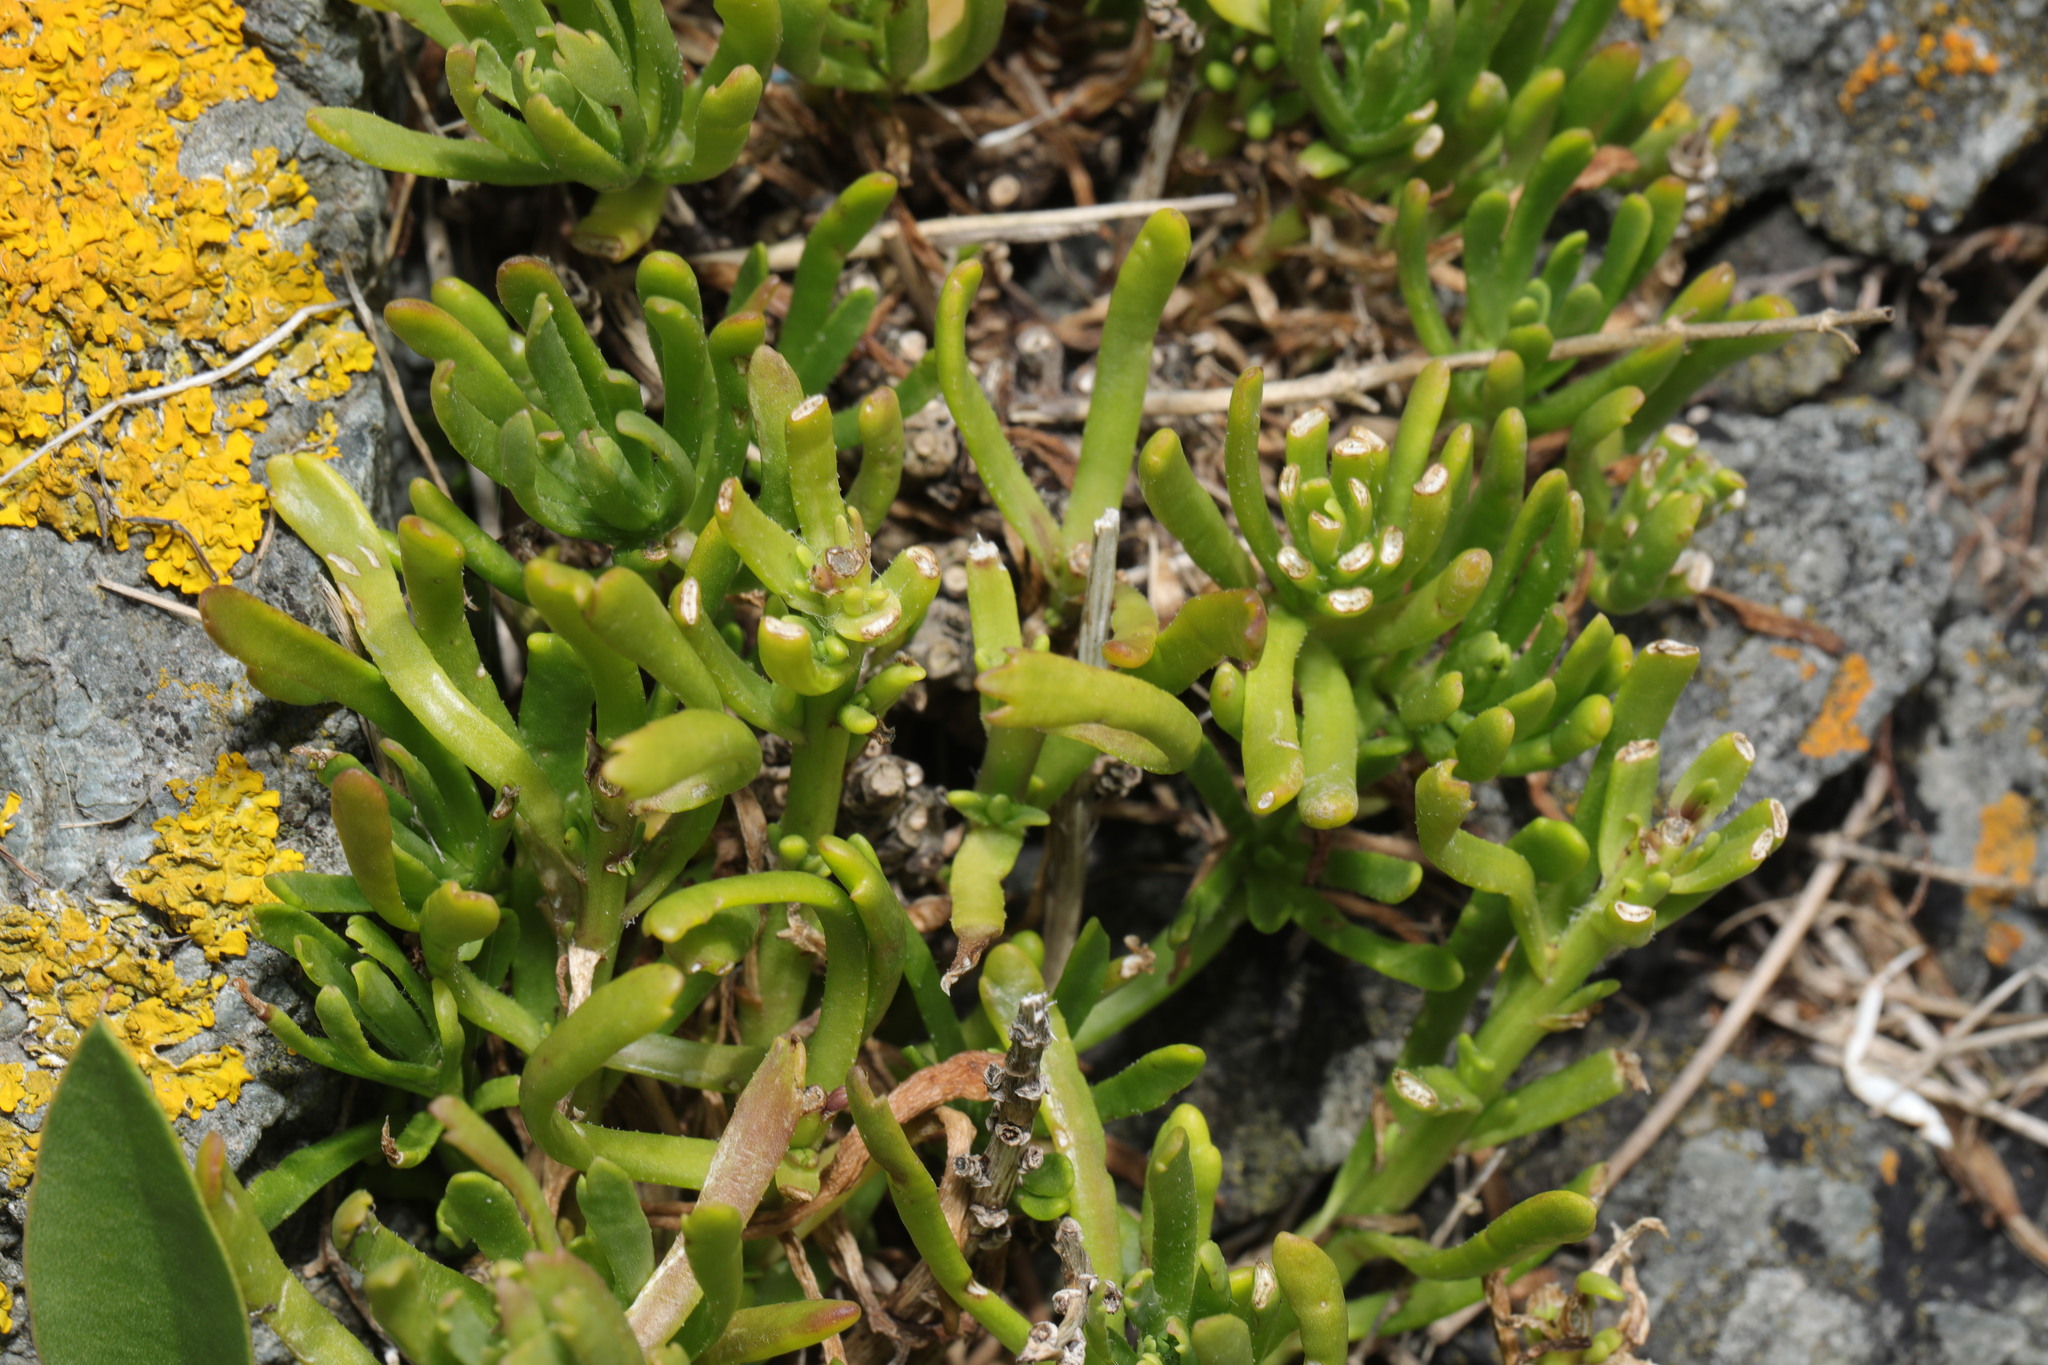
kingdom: Plantae
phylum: Tracheophyta
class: Magnoliopsida
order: Asterales
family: Asteraceae
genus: Limbarda
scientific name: Limbarda crithmoides
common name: Golden samphire
